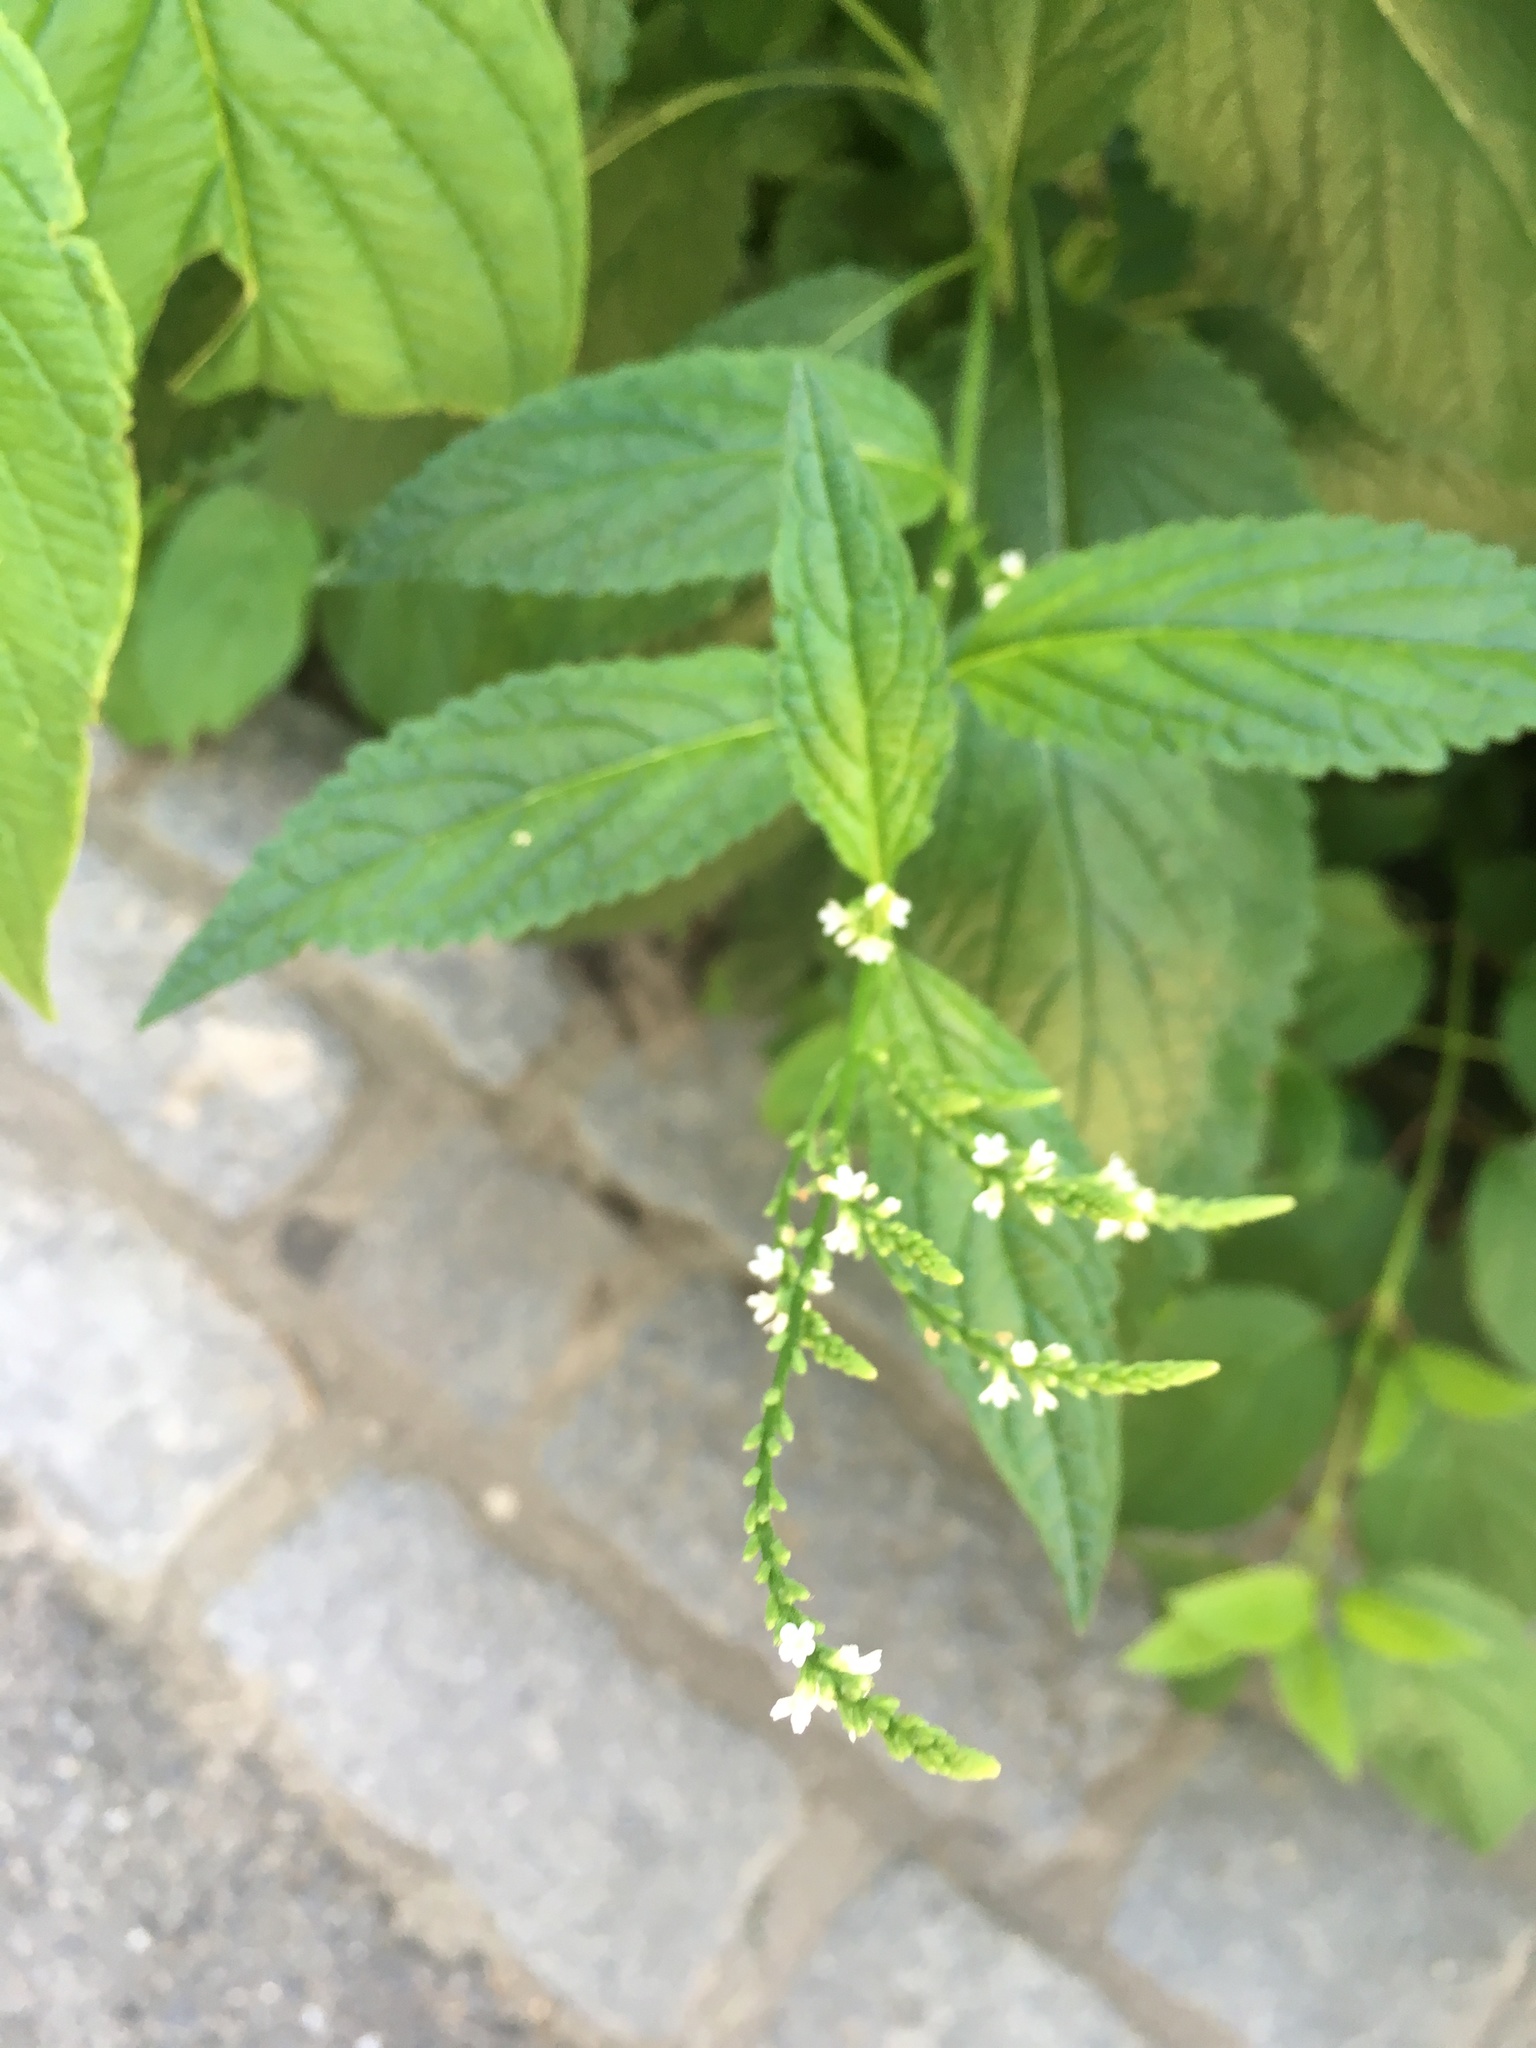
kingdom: Plantae
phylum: Tracheophyta
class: Magnoliopsida
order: Lamiales
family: Verbenaceae
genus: Verbena
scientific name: Verbena urticifolia
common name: Nettle-leaved vervain
